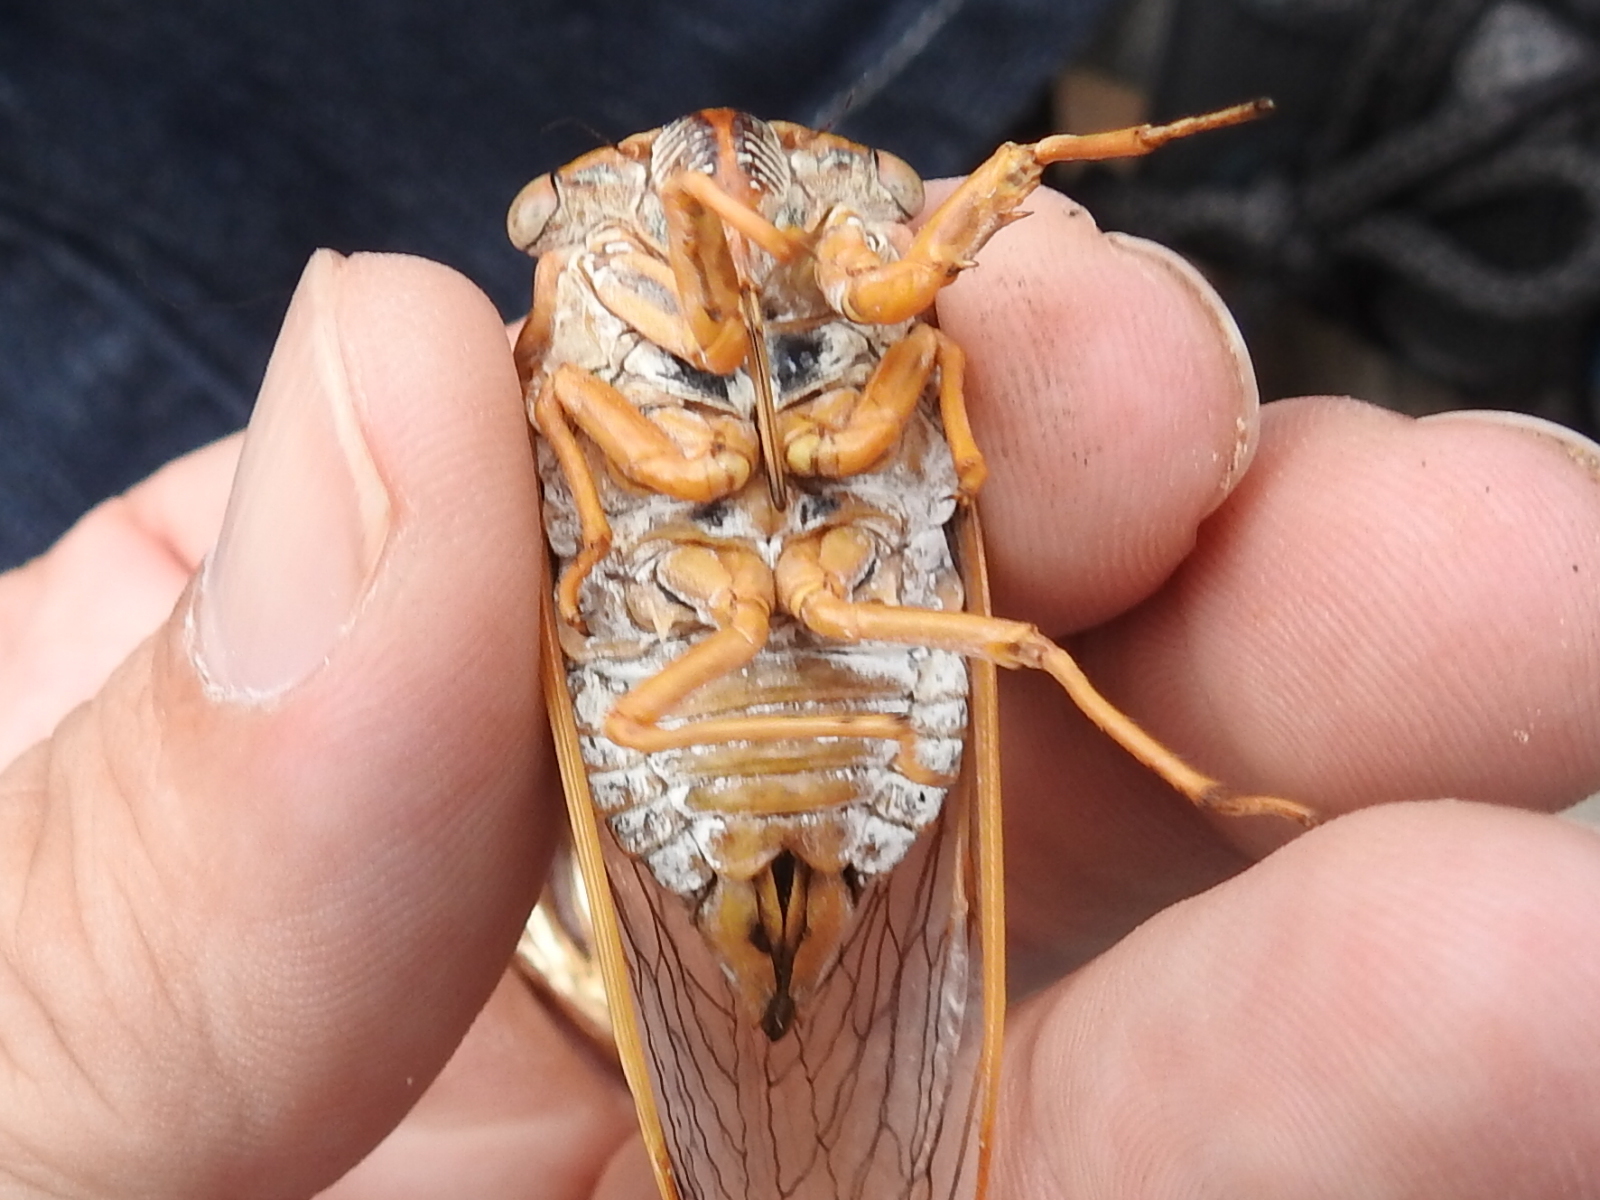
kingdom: Animalia
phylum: Arthropoda
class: Insecta
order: Hemiptera
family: Cicadidae
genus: Megatibicen
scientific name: Megatibicen dealbatus
